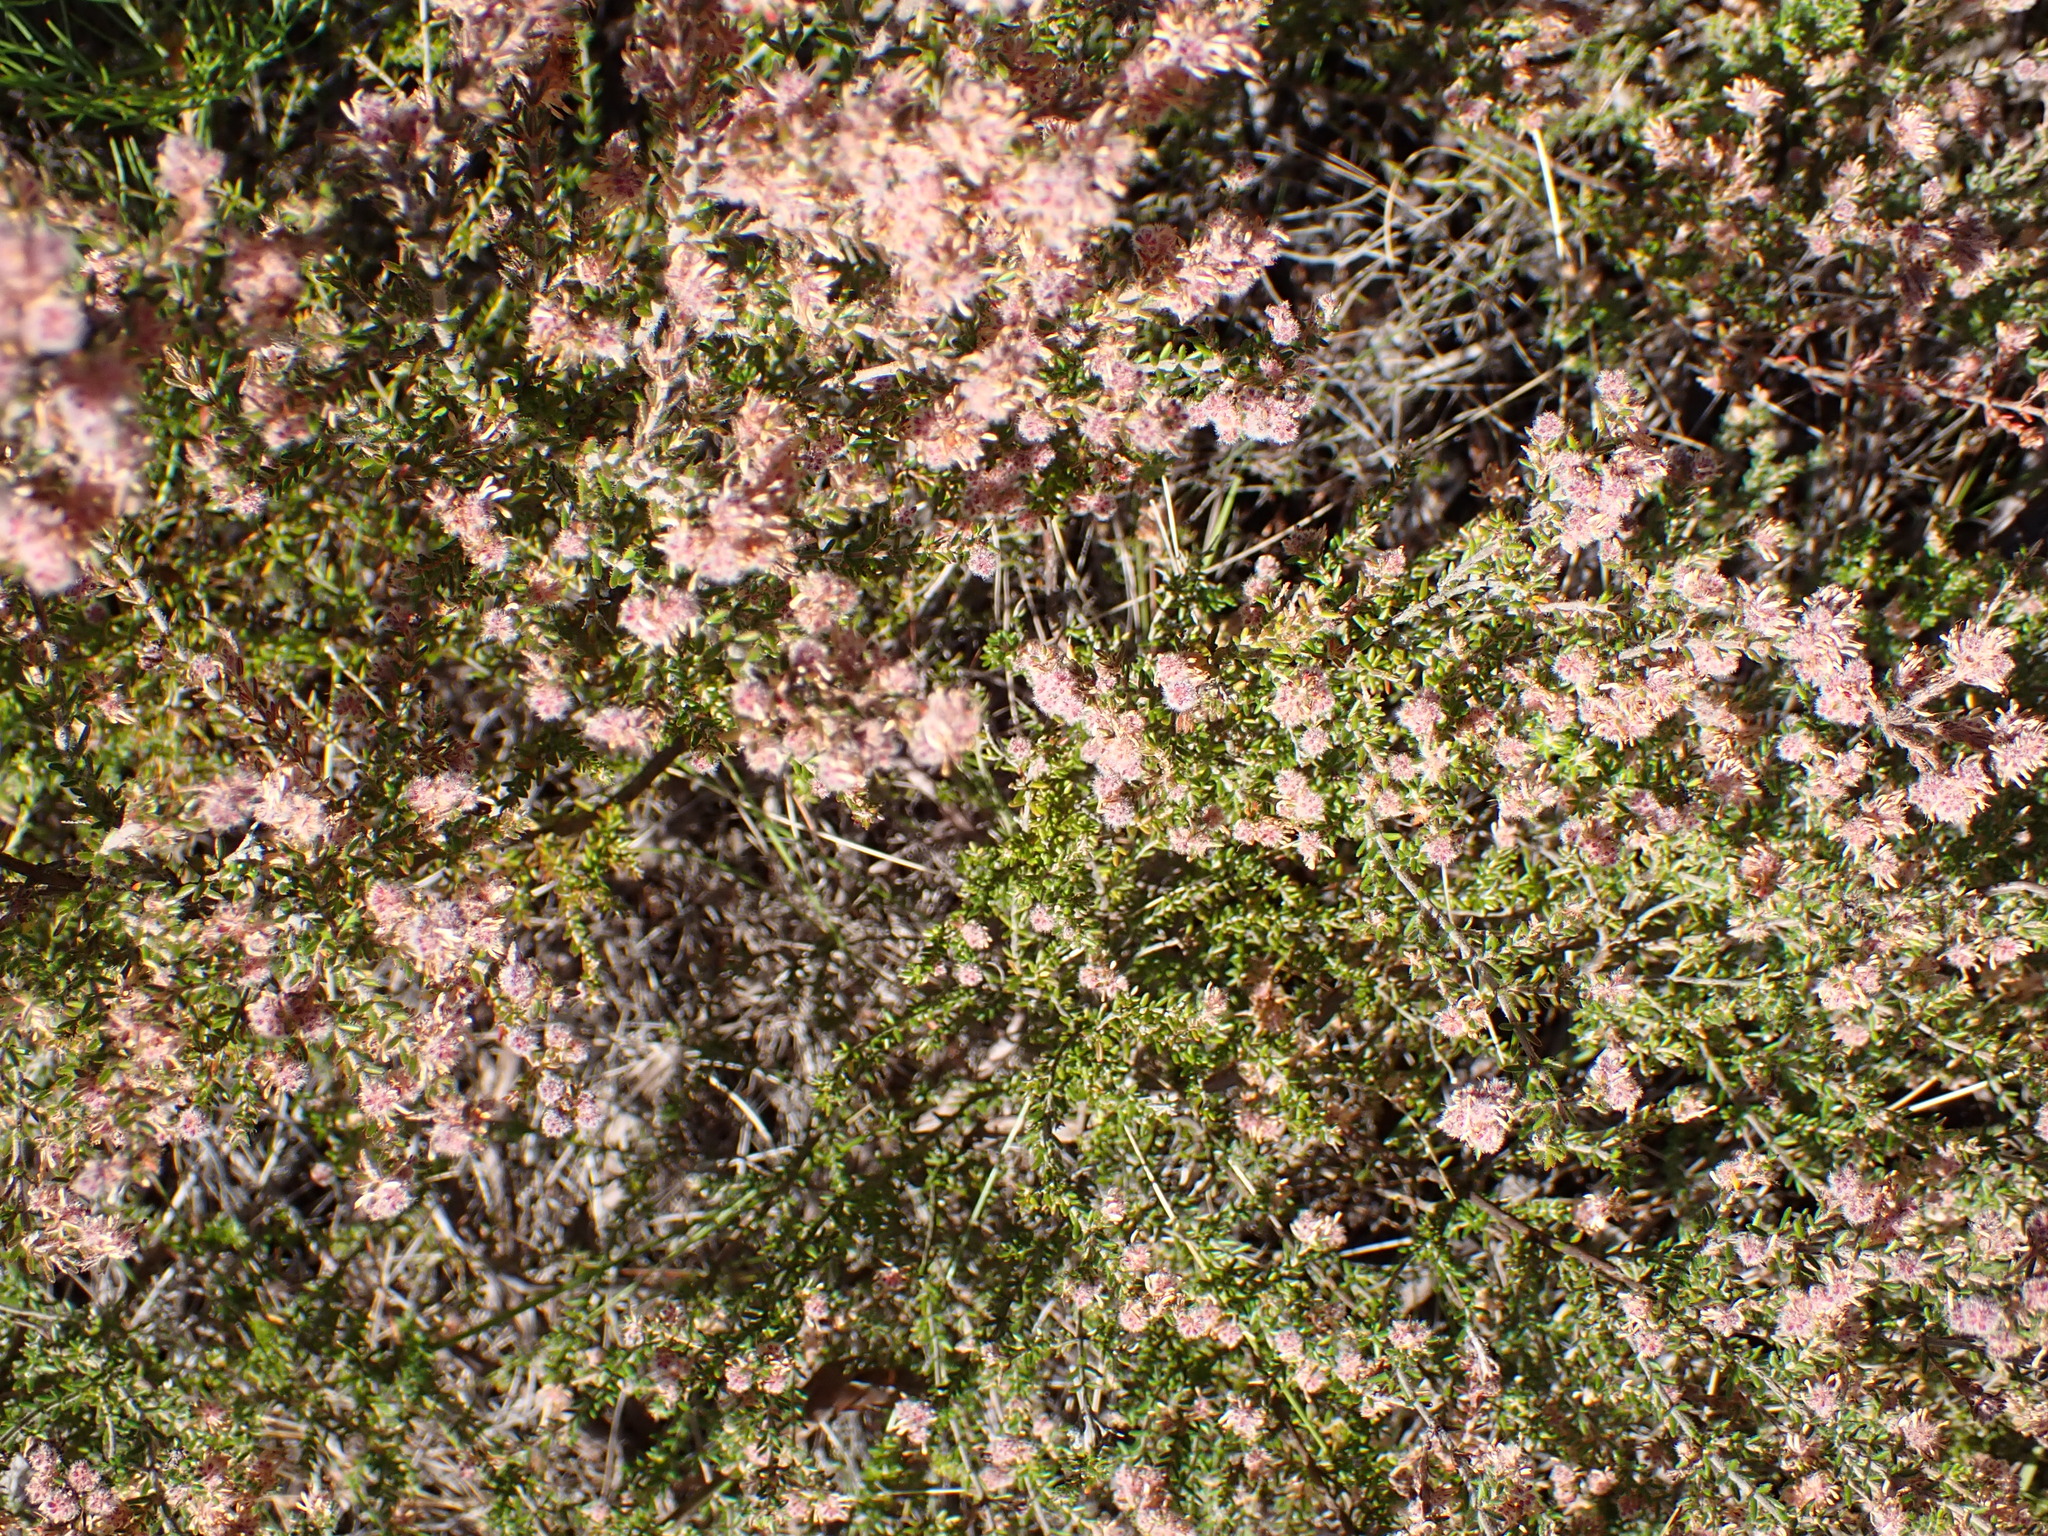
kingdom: Plantae
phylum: Tracheophyta
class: Magnoliopsida
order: Ericales
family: Ericaceae
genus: Erica
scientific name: Erica similis
